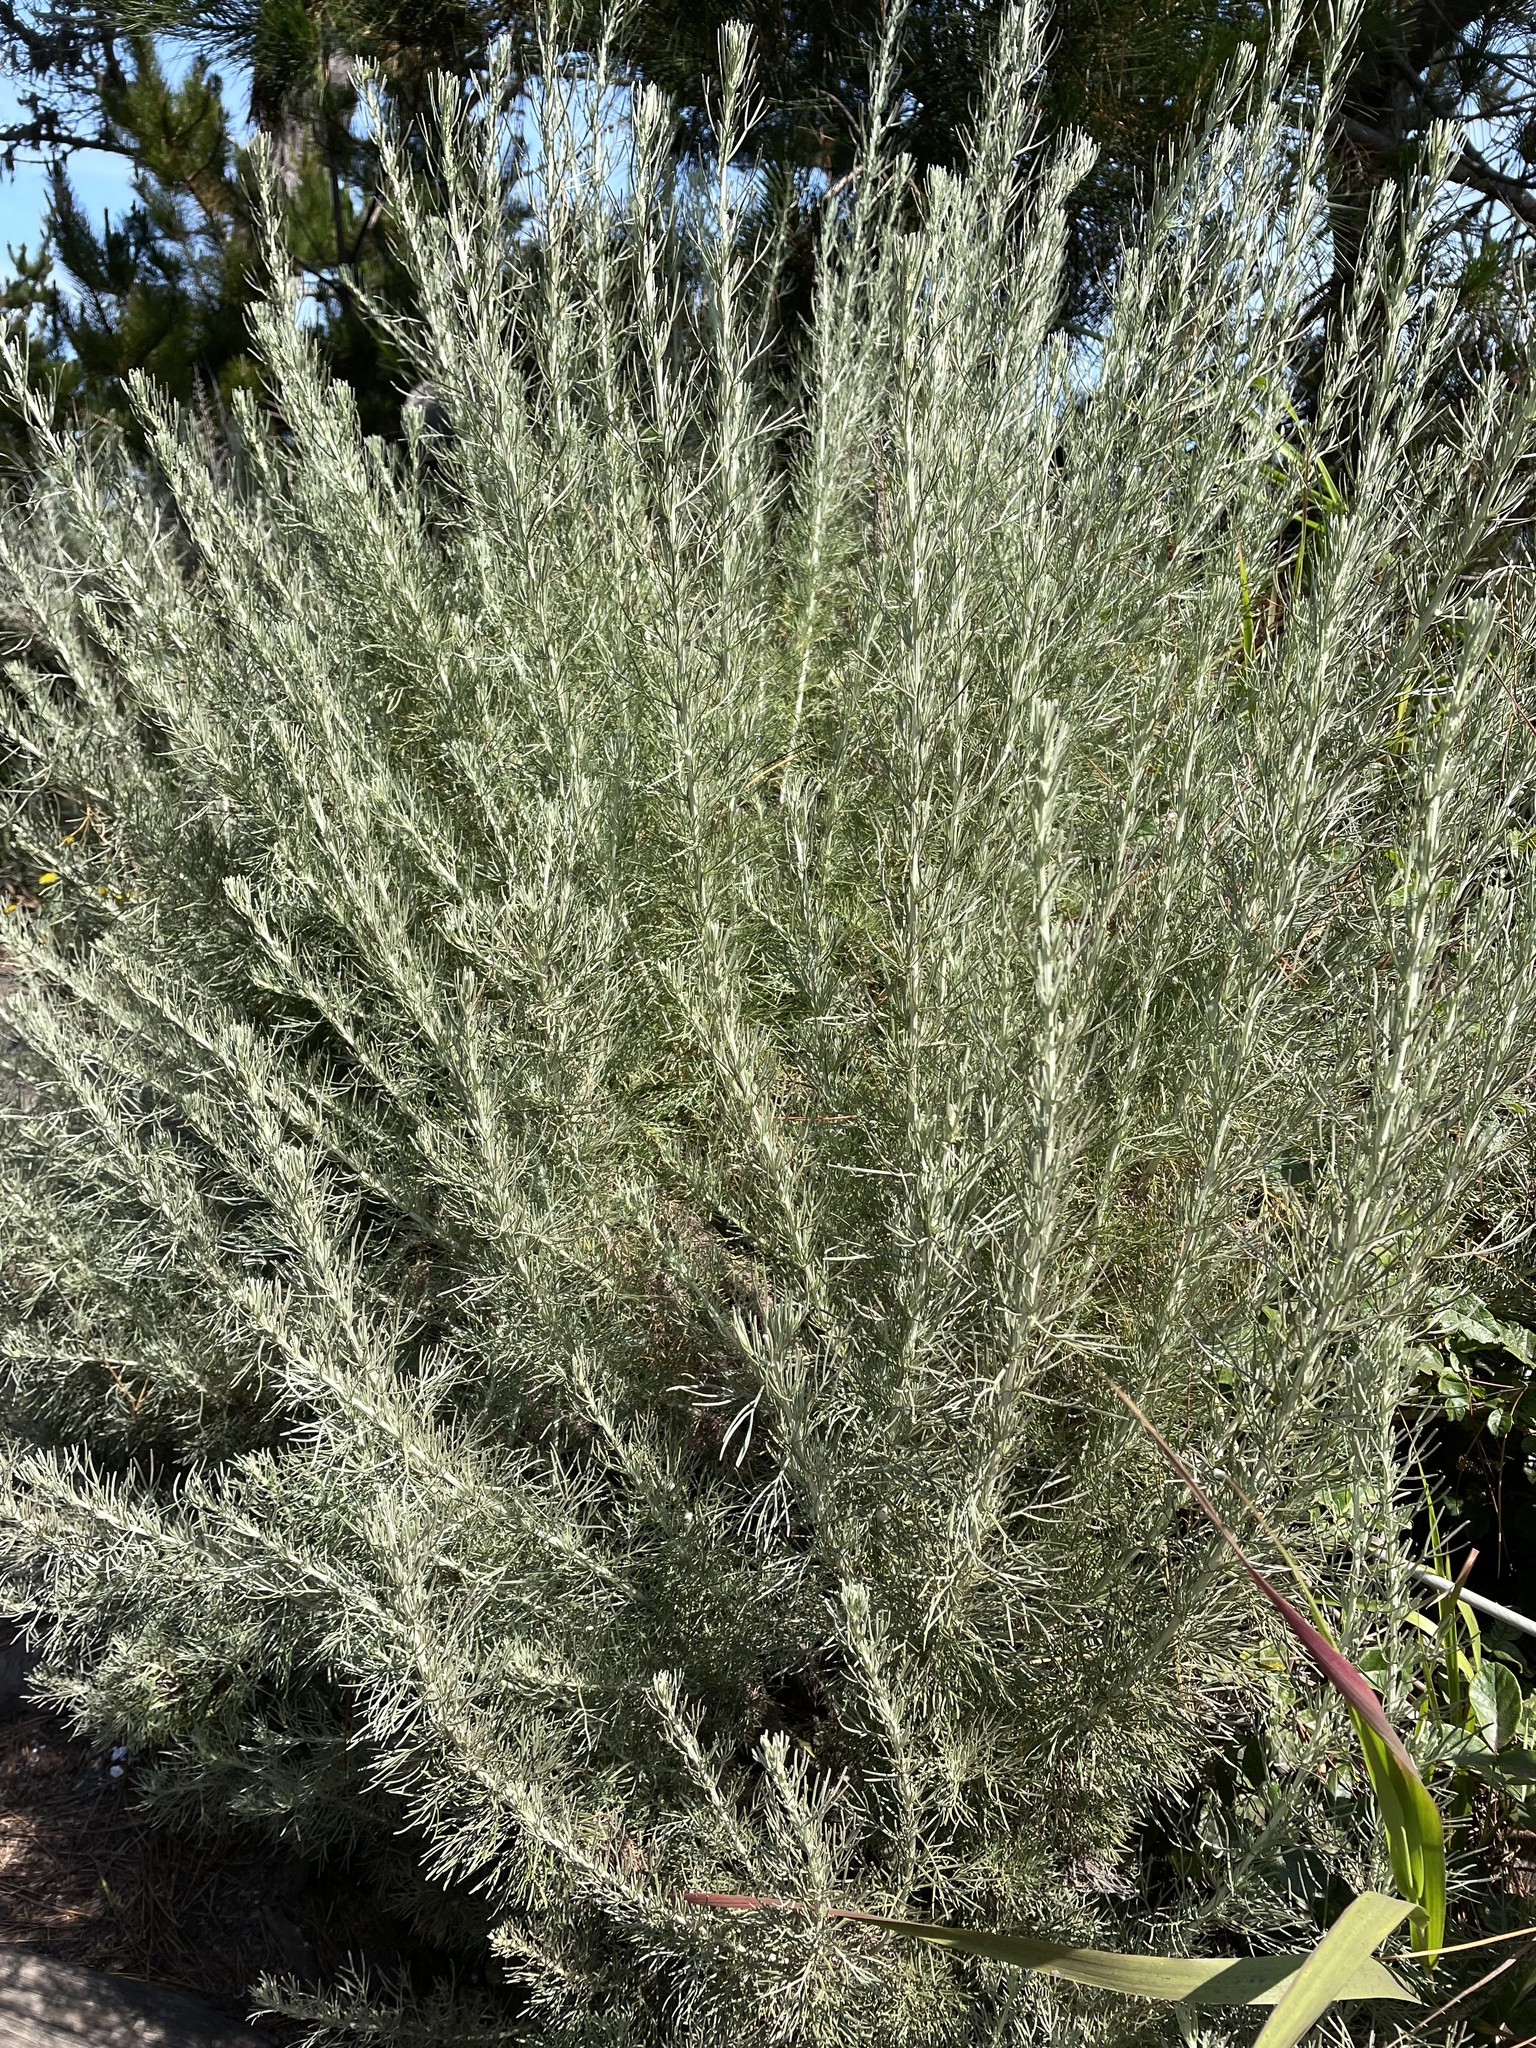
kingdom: Plantae
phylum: Tracheophyta
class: Magnoliopsida
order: Asterales
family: Asteraceae
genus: Artemisia
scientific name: Artemisia californica
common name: California sagebrush
